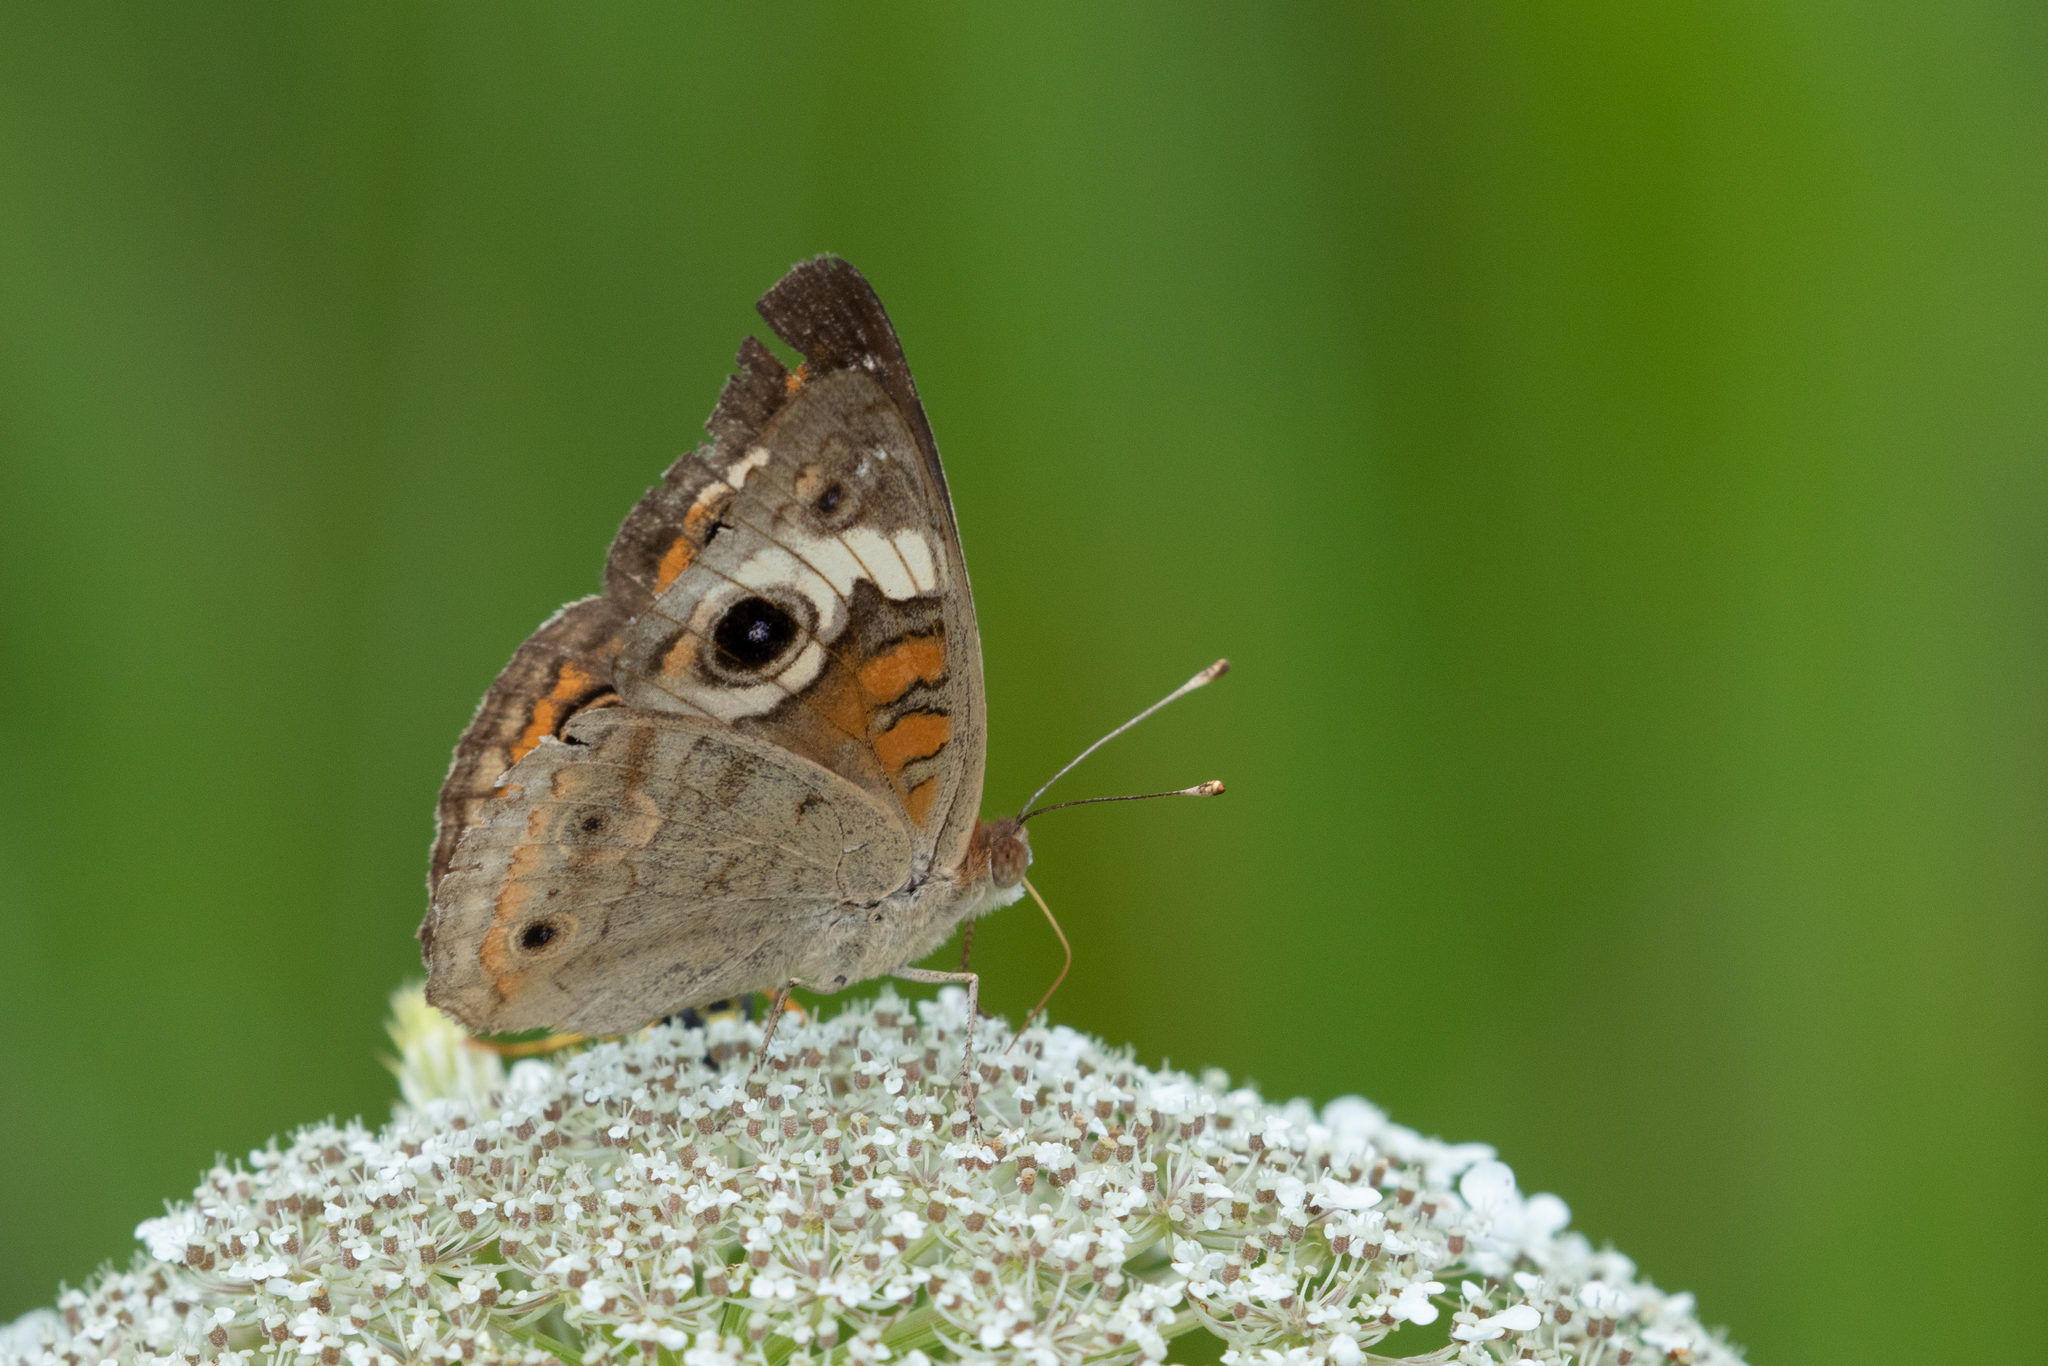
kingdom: Animalia
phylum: Arthropoda
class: Insecta
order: Lepidoptera
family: Nymphalidae
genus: Junonia
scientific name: Junonia coenia
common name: Common buckeye
